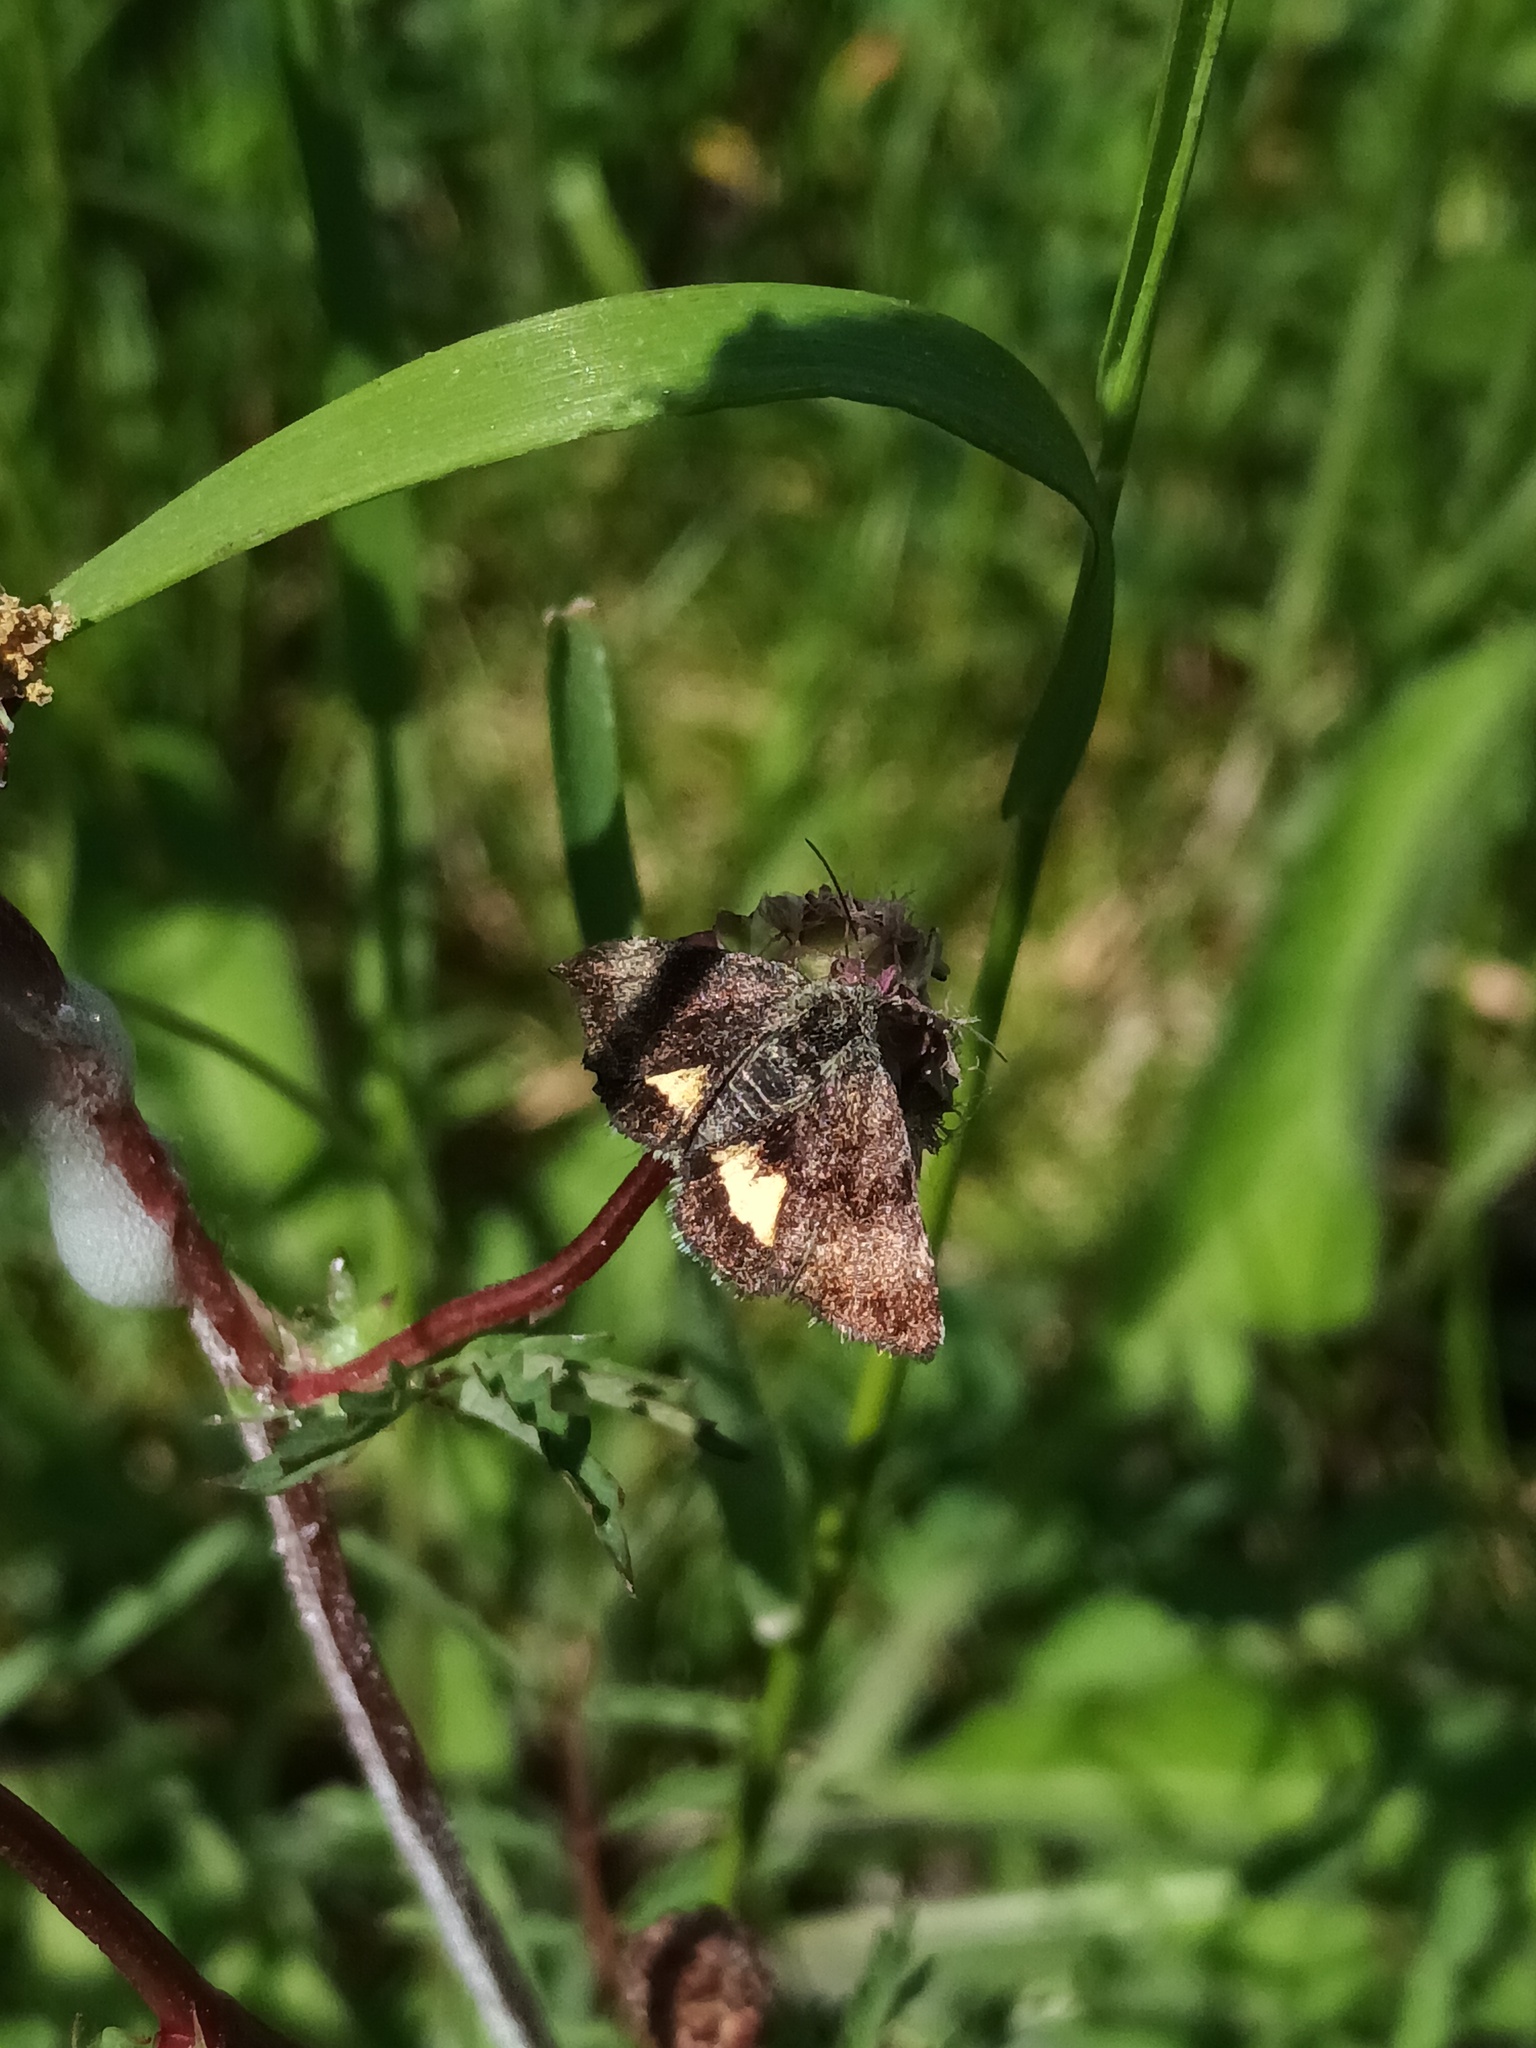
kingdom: Animalia
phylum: Arthropoda
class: Insecta
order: Lepidoptera
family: Noctuidae
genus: Panemeria
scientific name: Panemeria tenebrata
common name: Small yellow underwing
